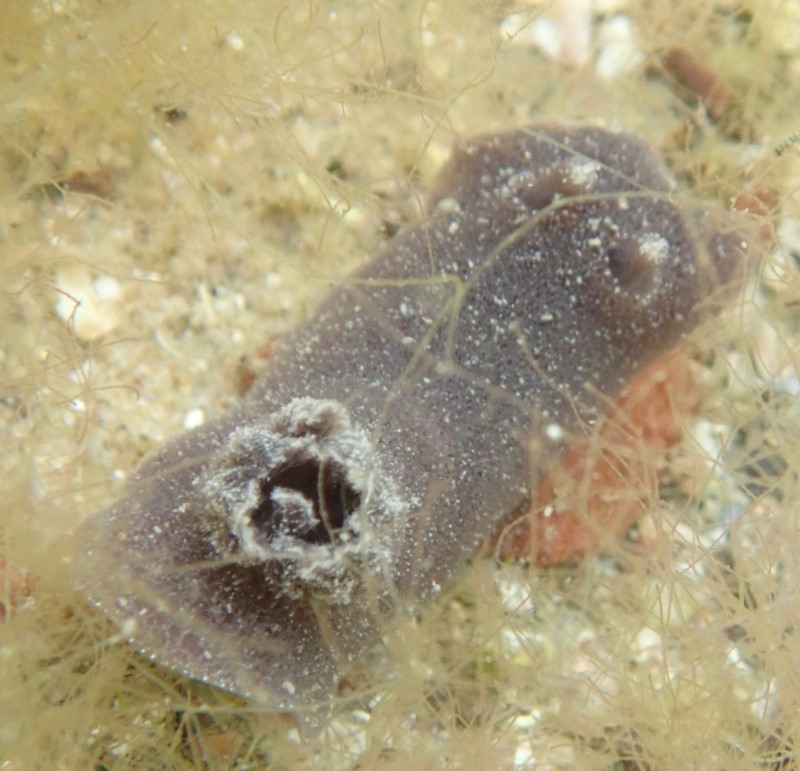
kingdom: Animalia
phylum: Mollusca
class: Gastropoda
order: Nudibranchia
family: Discodorididae
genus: Jorunna
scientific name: Jorunna ramicola
